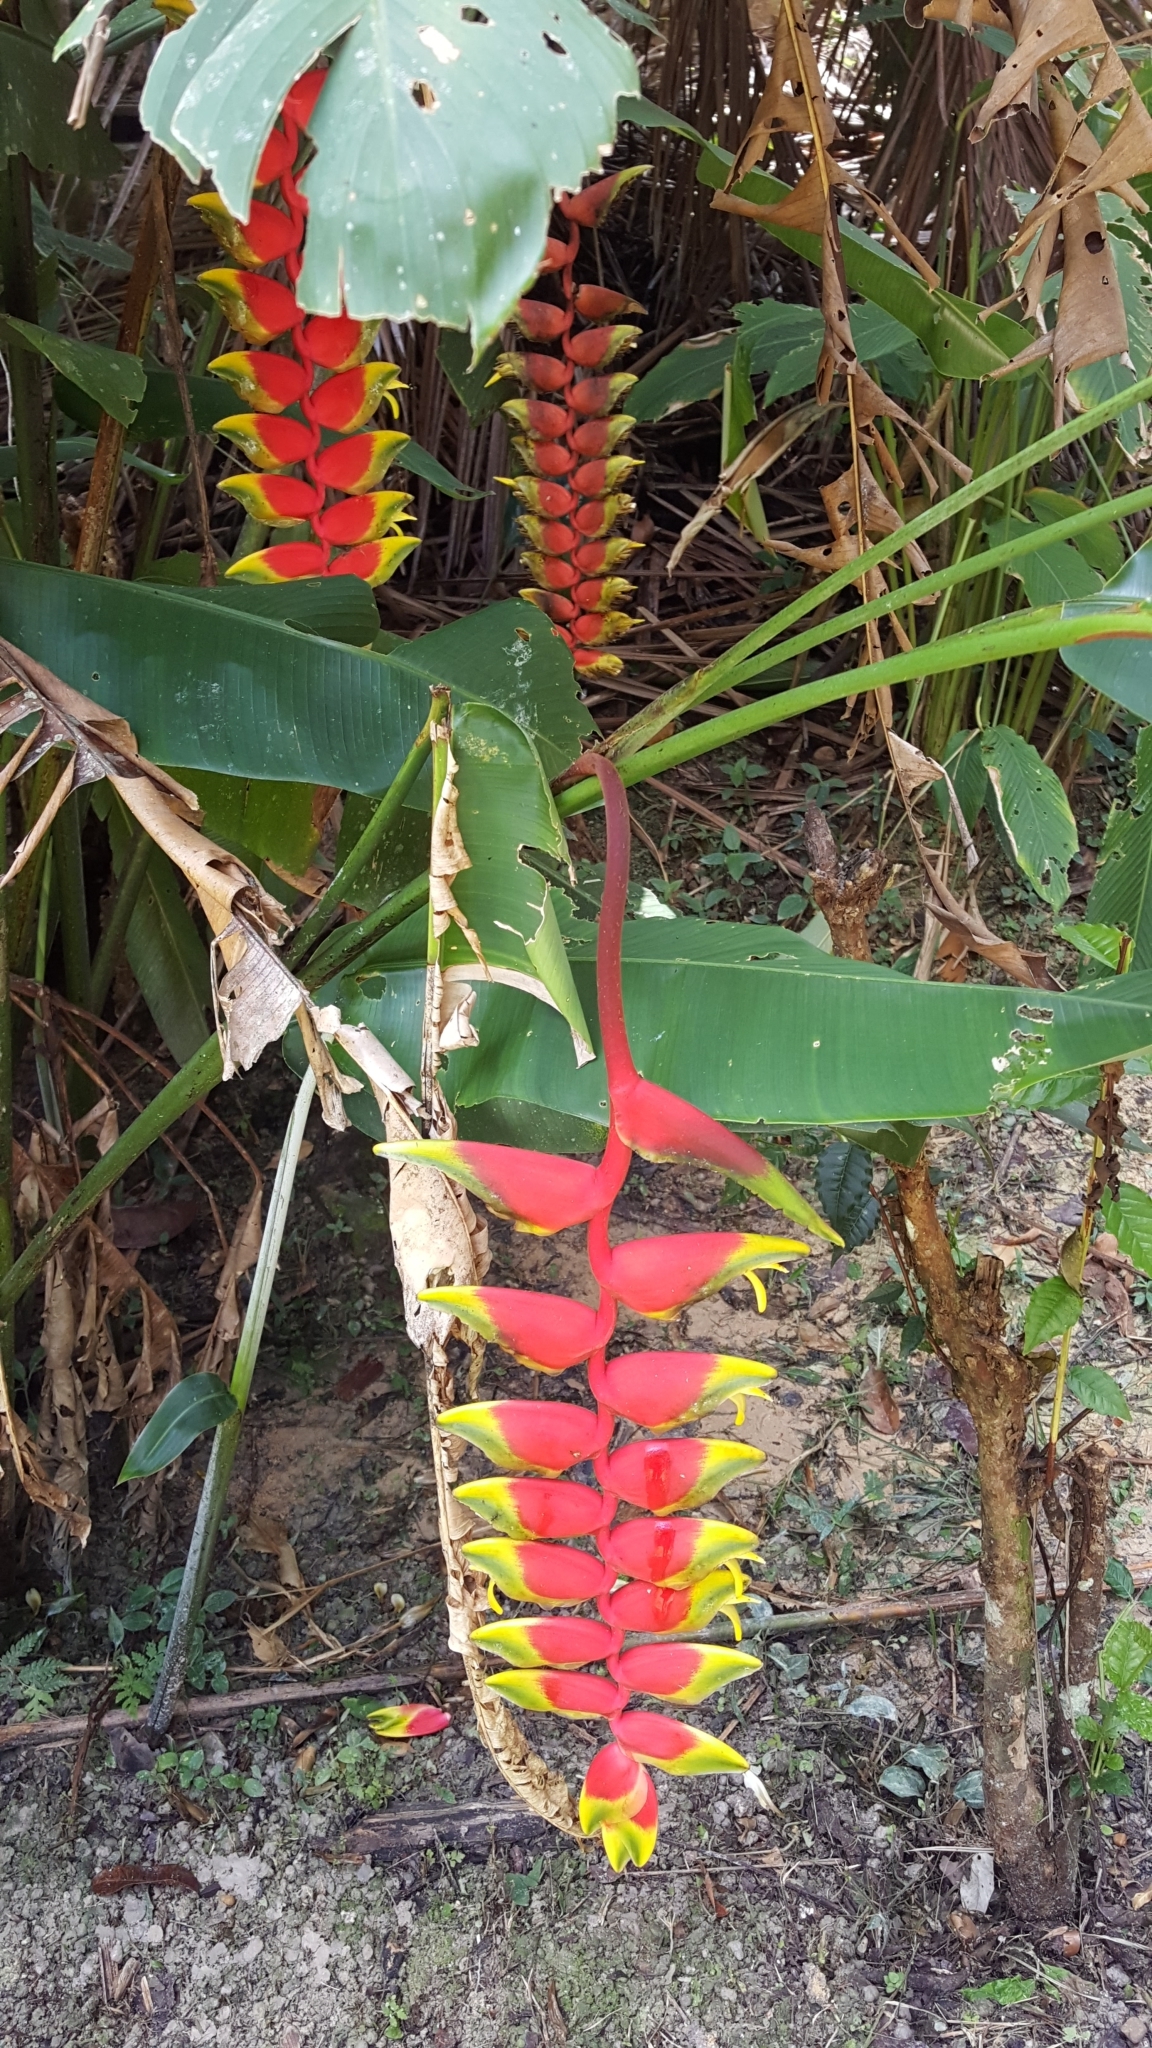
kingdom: Plantae
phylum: Tracheophyta
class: Liliopsida
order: Zingiberales
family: Heliconiaceae
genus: Heliconia
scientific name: Heliconia rostrata
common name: False bird of paradise
